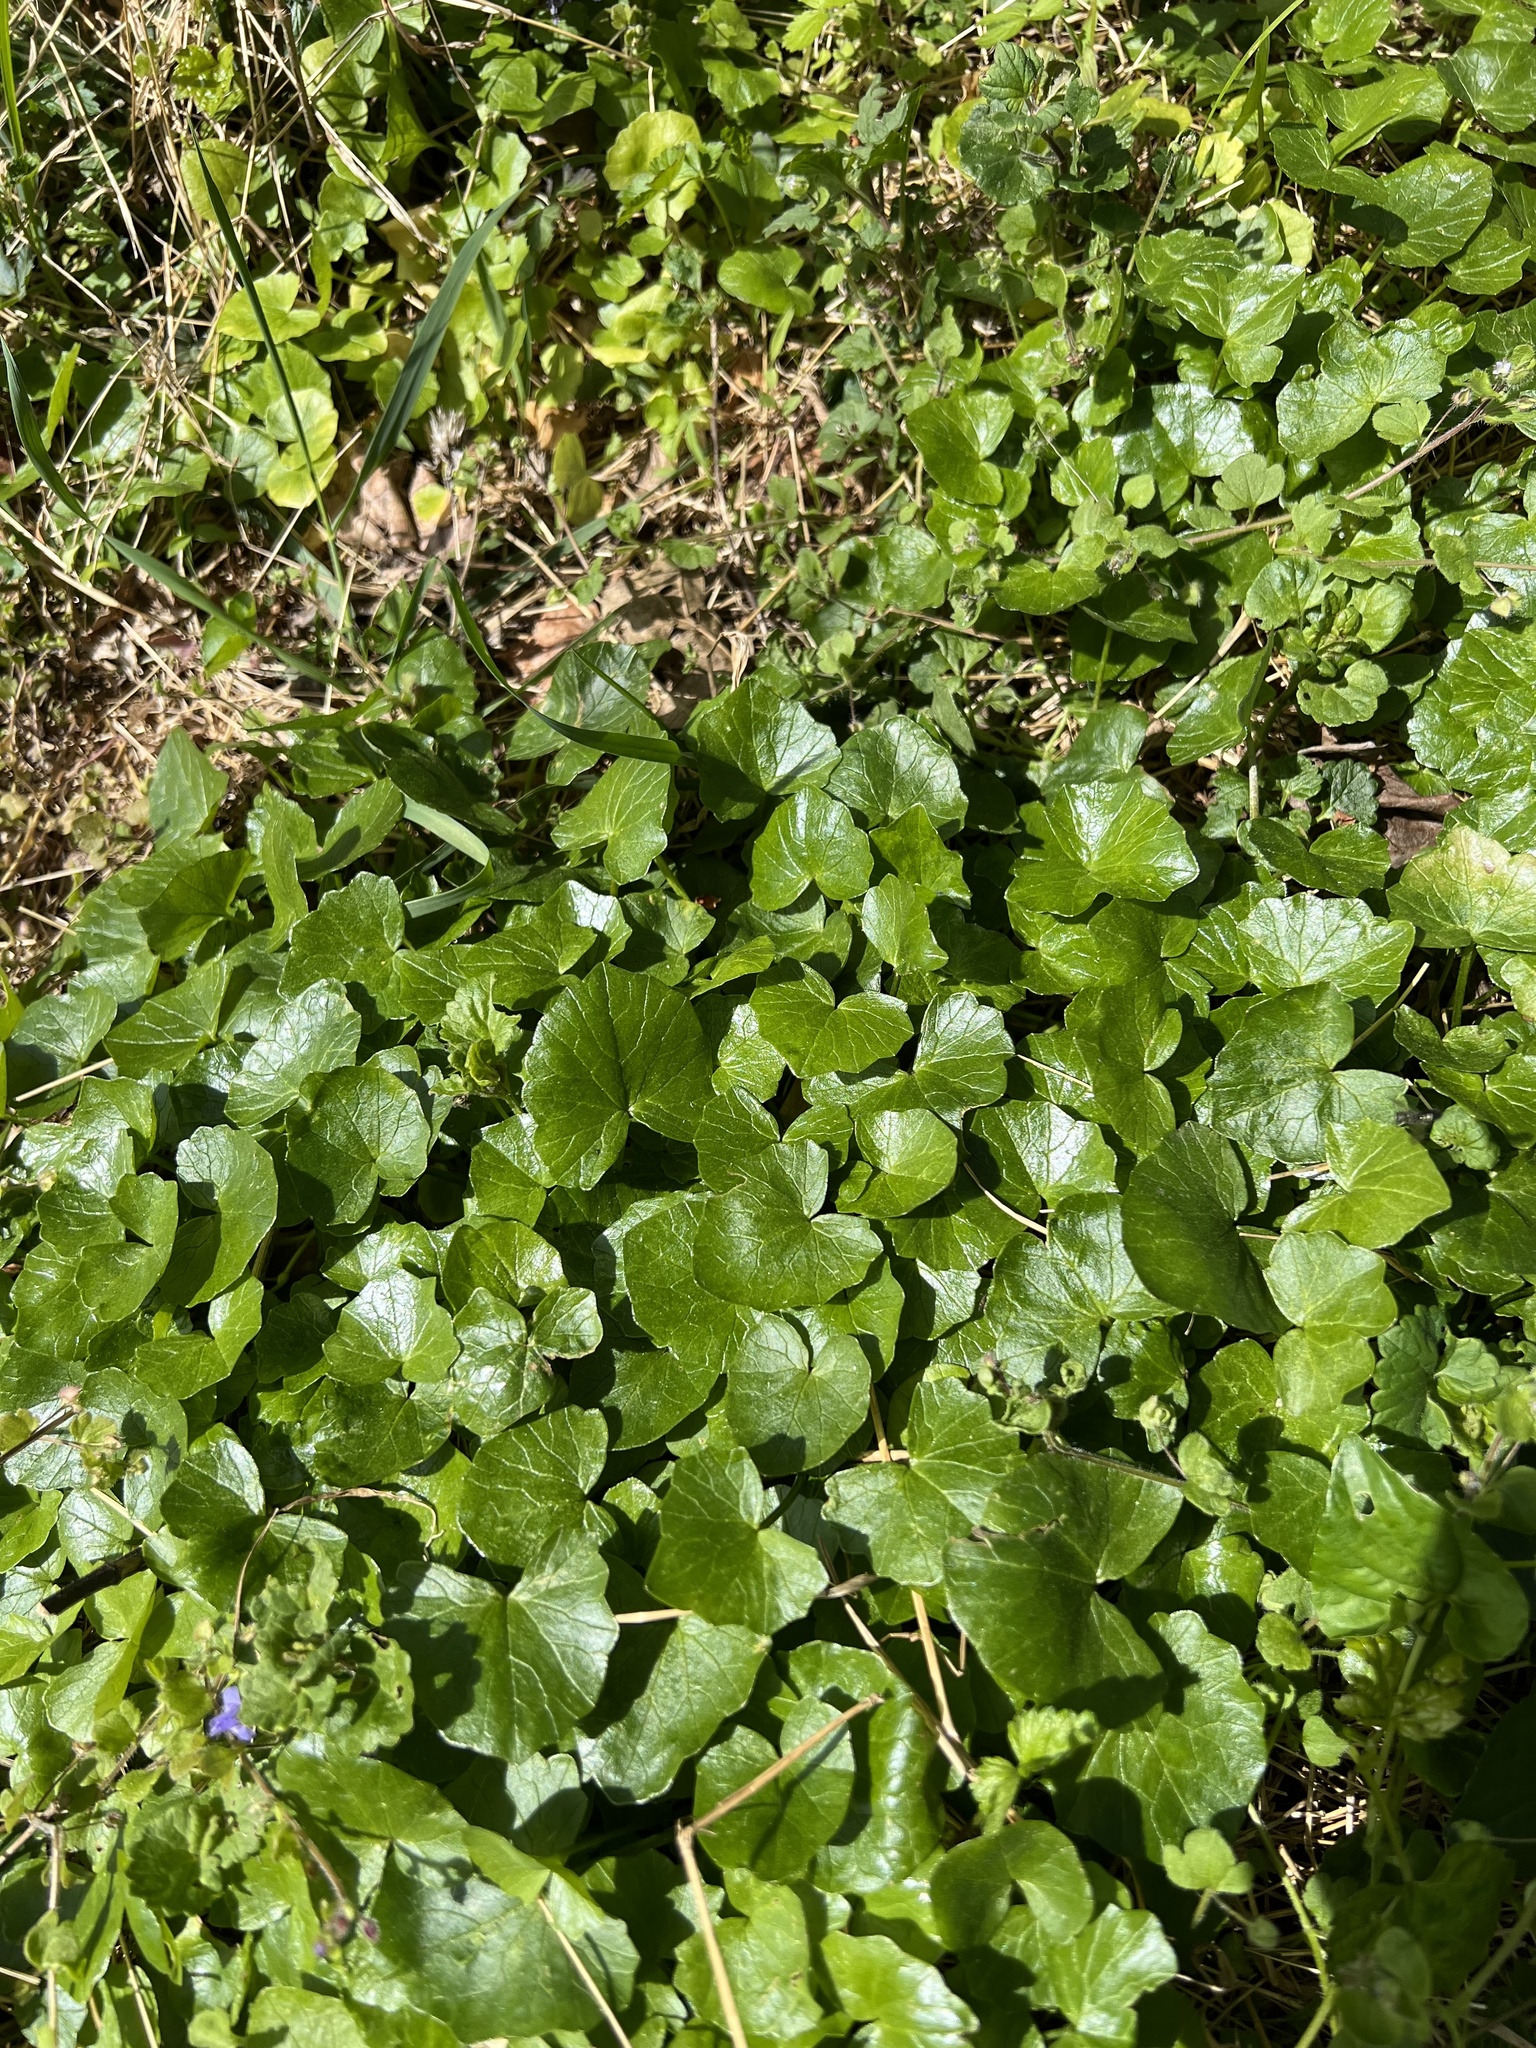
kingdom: Plantae
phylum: Tracheophyta
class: Magnoliopsida
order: Ranunculales
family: Ranunculaceae
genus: Ficaria
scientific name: Ficaria verna
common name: Lesser celandine
